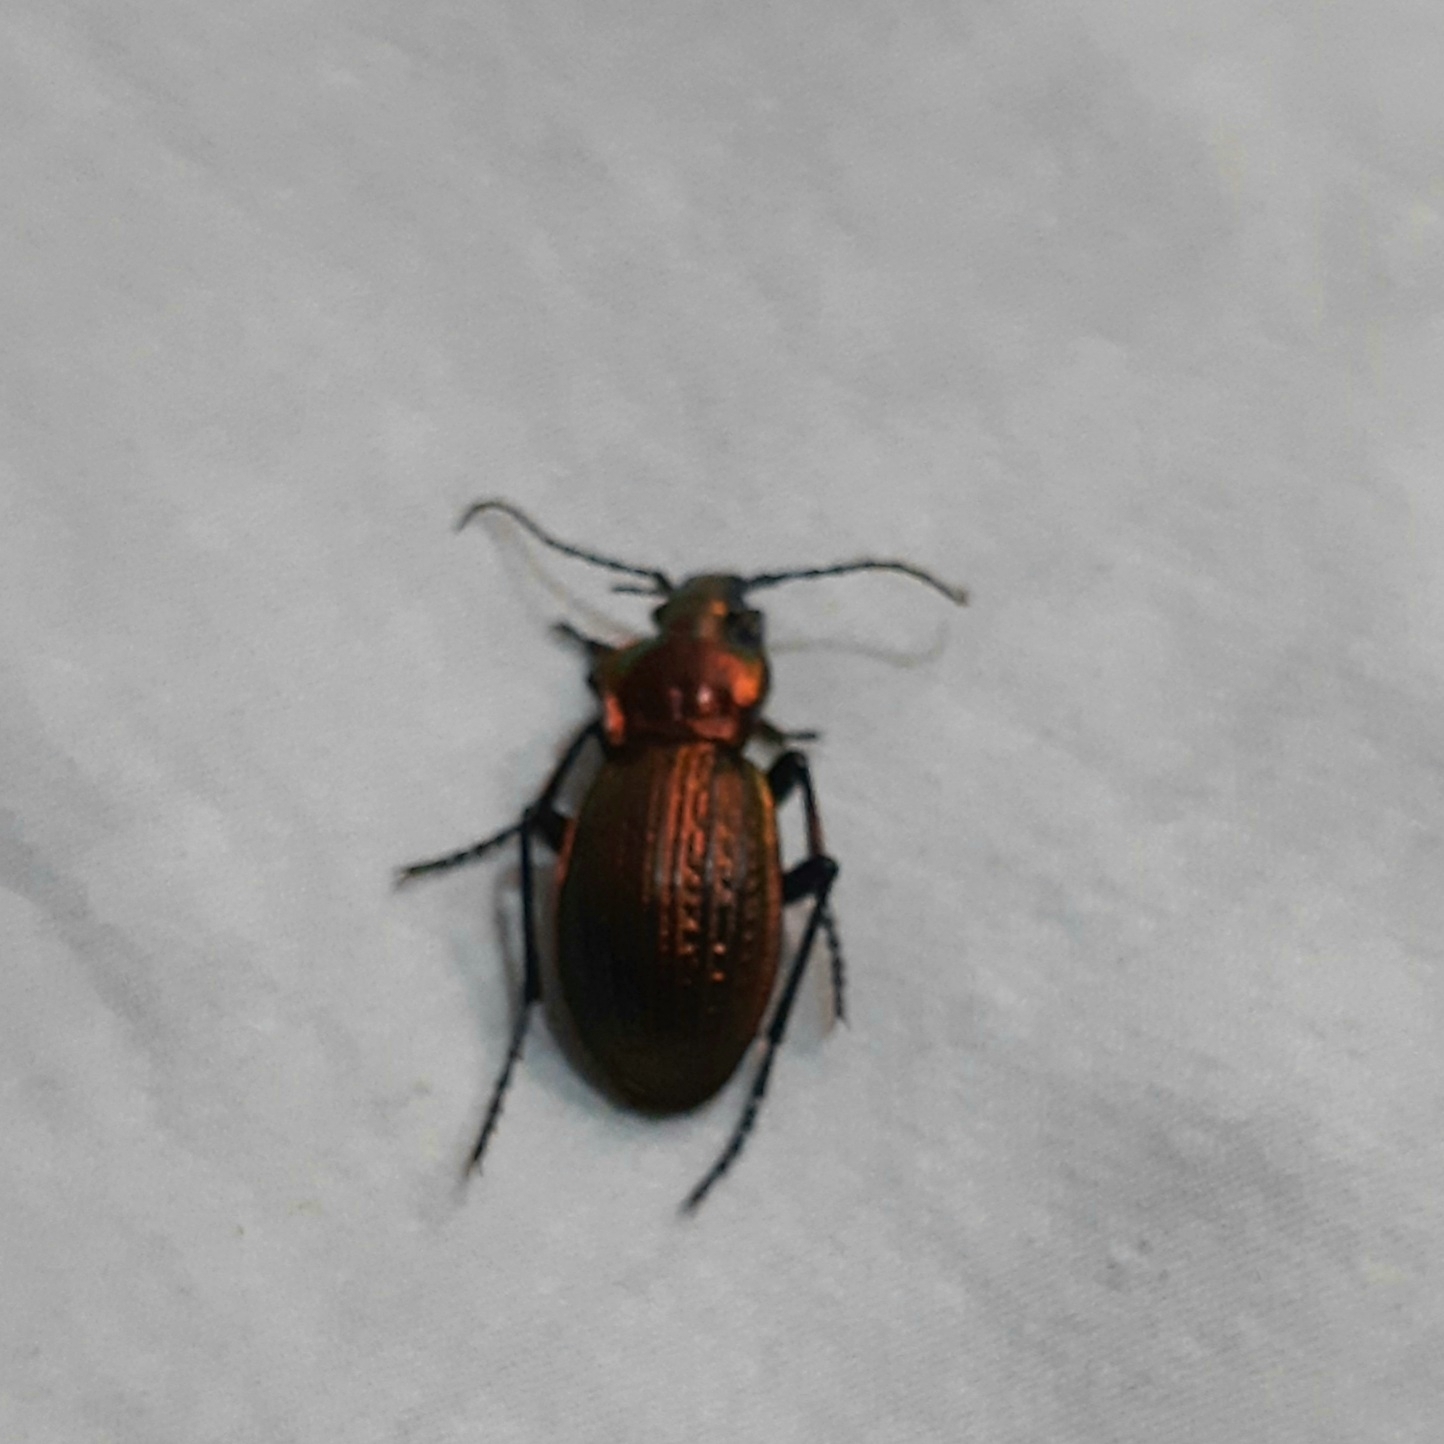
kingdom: Animalia
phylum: Arthropoda
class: Insecta
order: Coleoptera
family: Carabidae
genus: Carabus
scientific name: Carabus ulrichii
